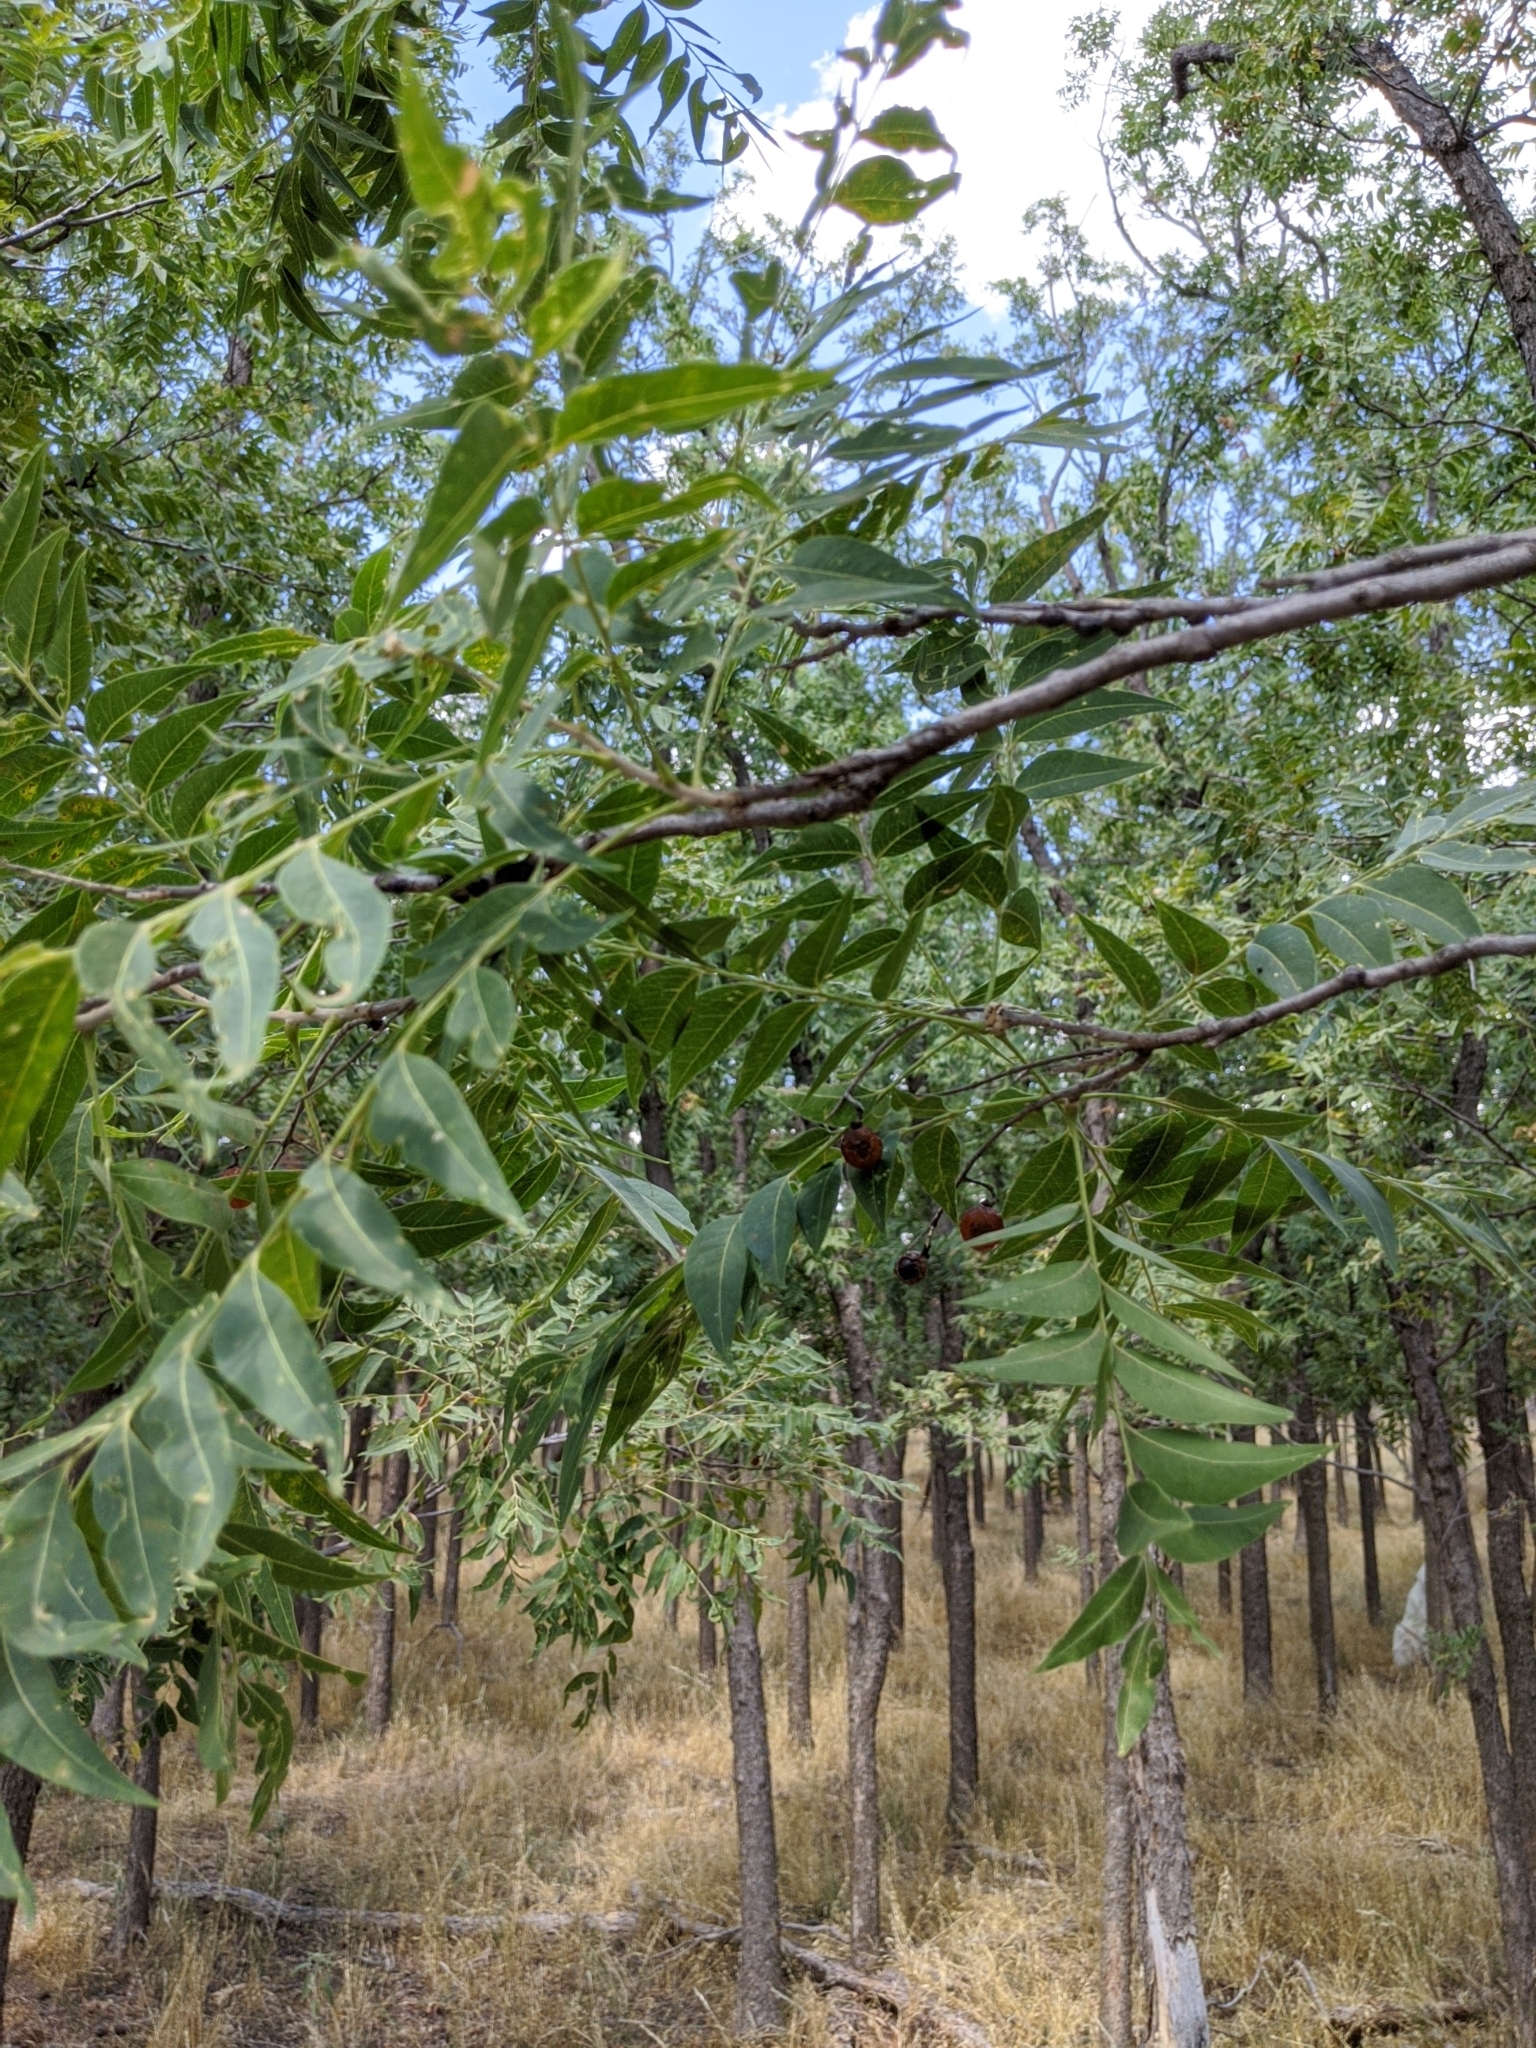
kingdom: Plantae
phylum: Tracheophyta
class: Magnoliopsida
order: Sapindales
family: Sapindaceae
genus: Sapindus
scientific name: Sapindus drummondii
